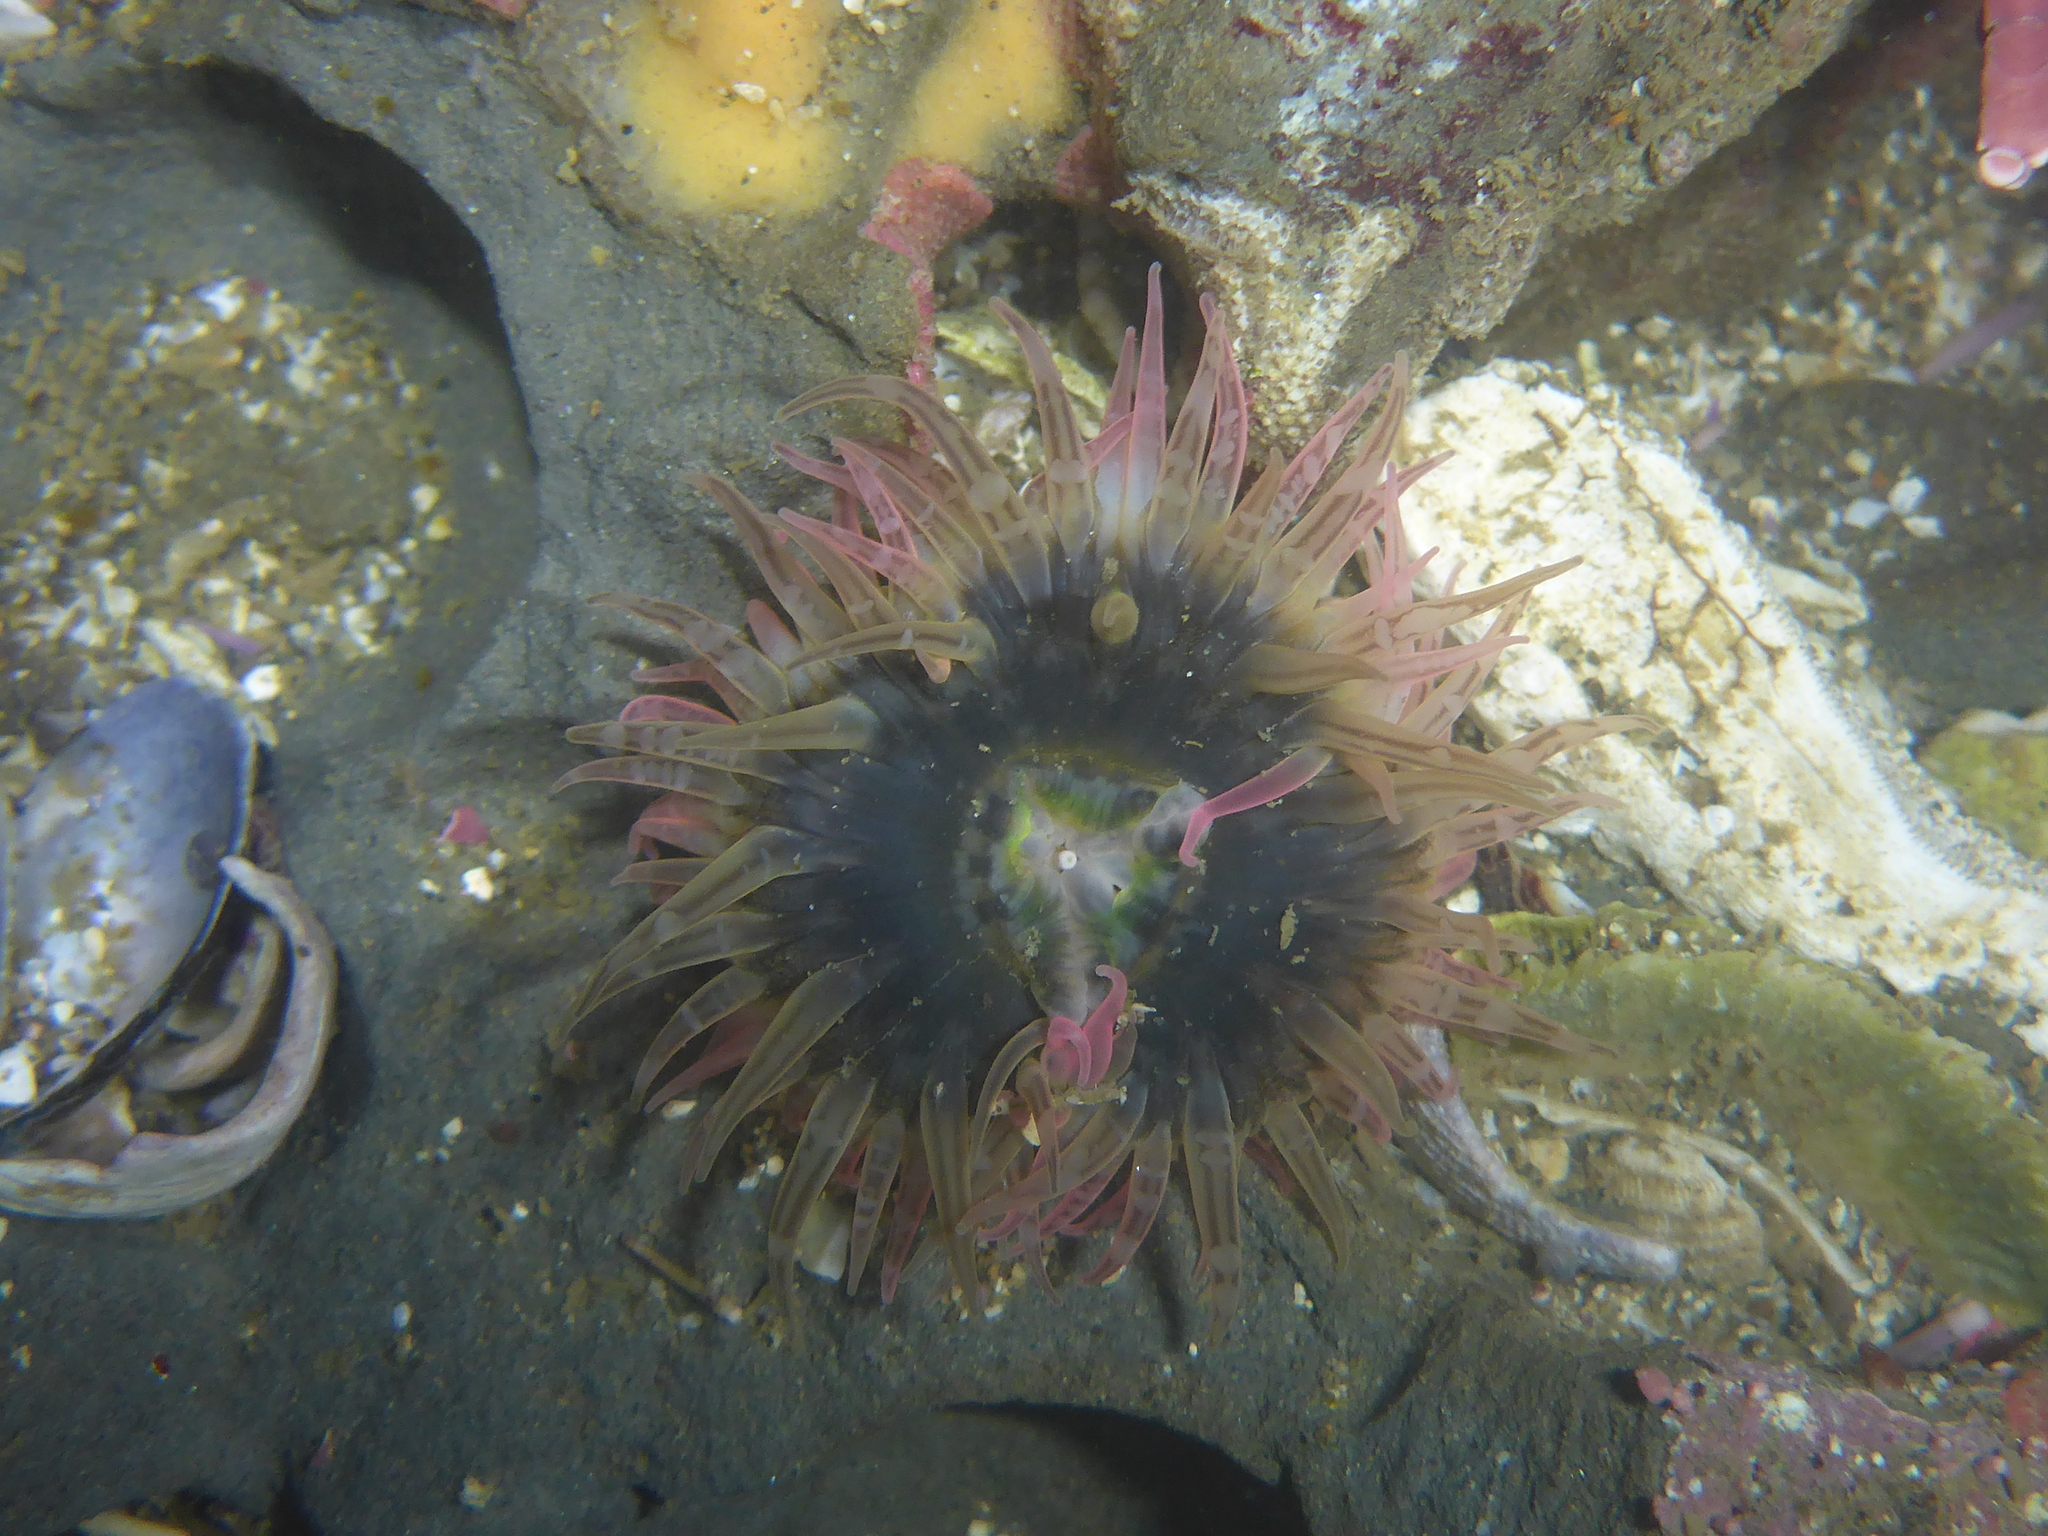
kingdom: Animalia
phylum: Cnidaria
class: Anthozoa
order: Actiniaria
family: Actiniidae
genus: Anthopleura
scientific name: Anthopleura artemisia
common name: Buried sea anemone
